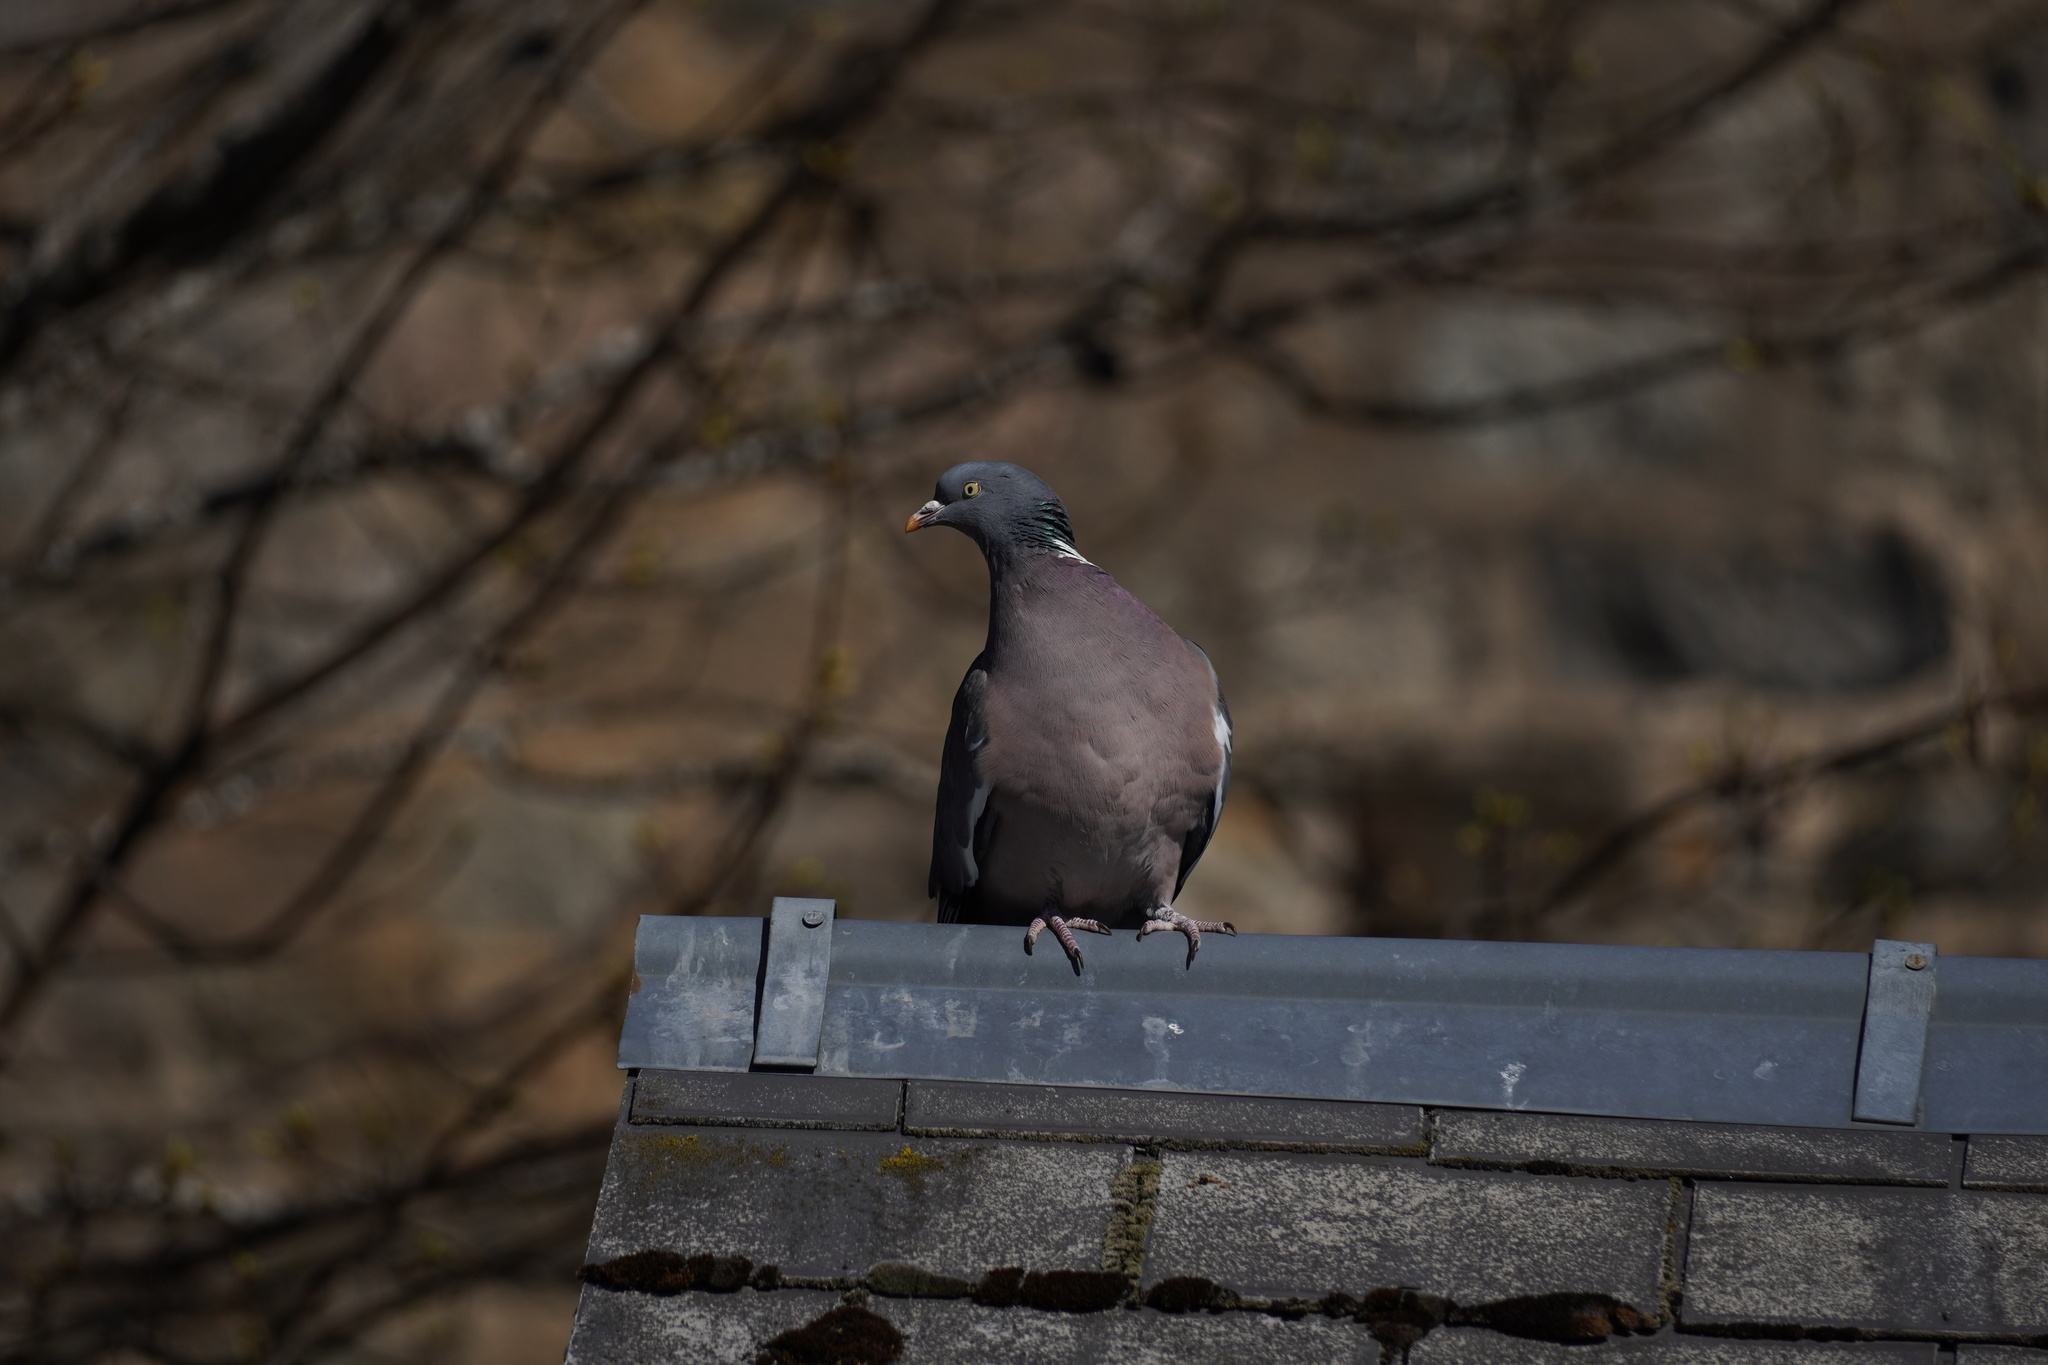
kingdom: Animalia
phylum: Chordata
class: Aves
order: Columbiformes
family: Columbidae
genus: Columba
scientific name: Columba palumbus
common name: Common wood pigeon
